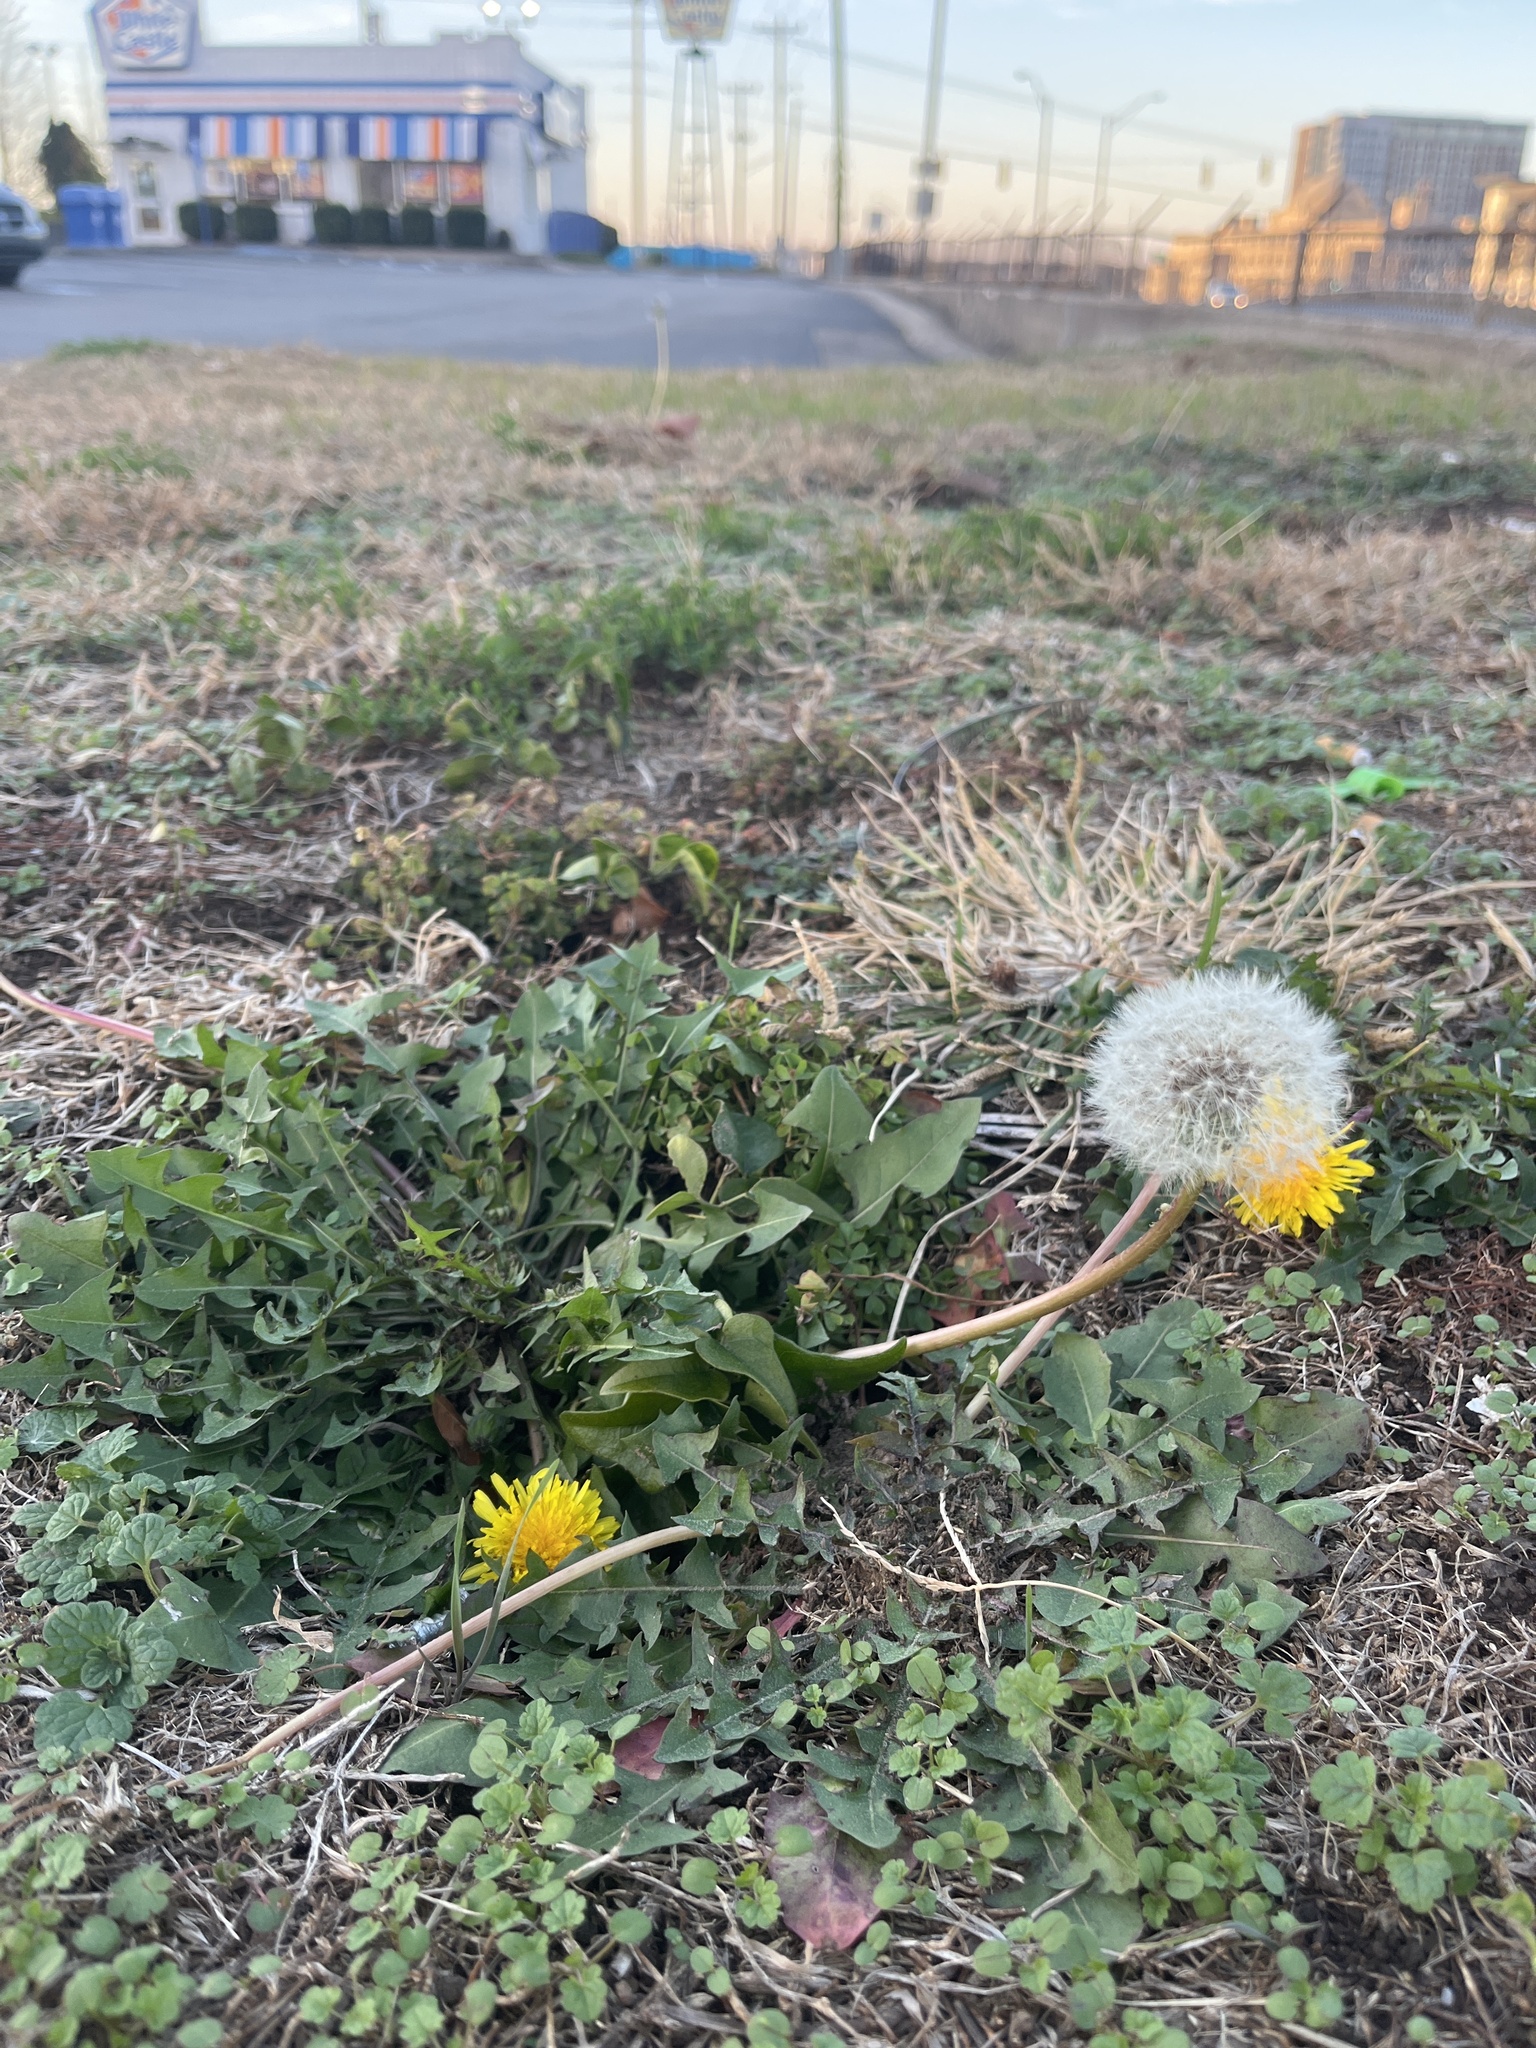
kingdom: Plantae
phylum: Tracheophyta
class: Magnoliopsida
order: Asterales
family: Asteraceae
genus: Taraxacum
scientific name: Taraxacum officinale
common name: Common dandelion
